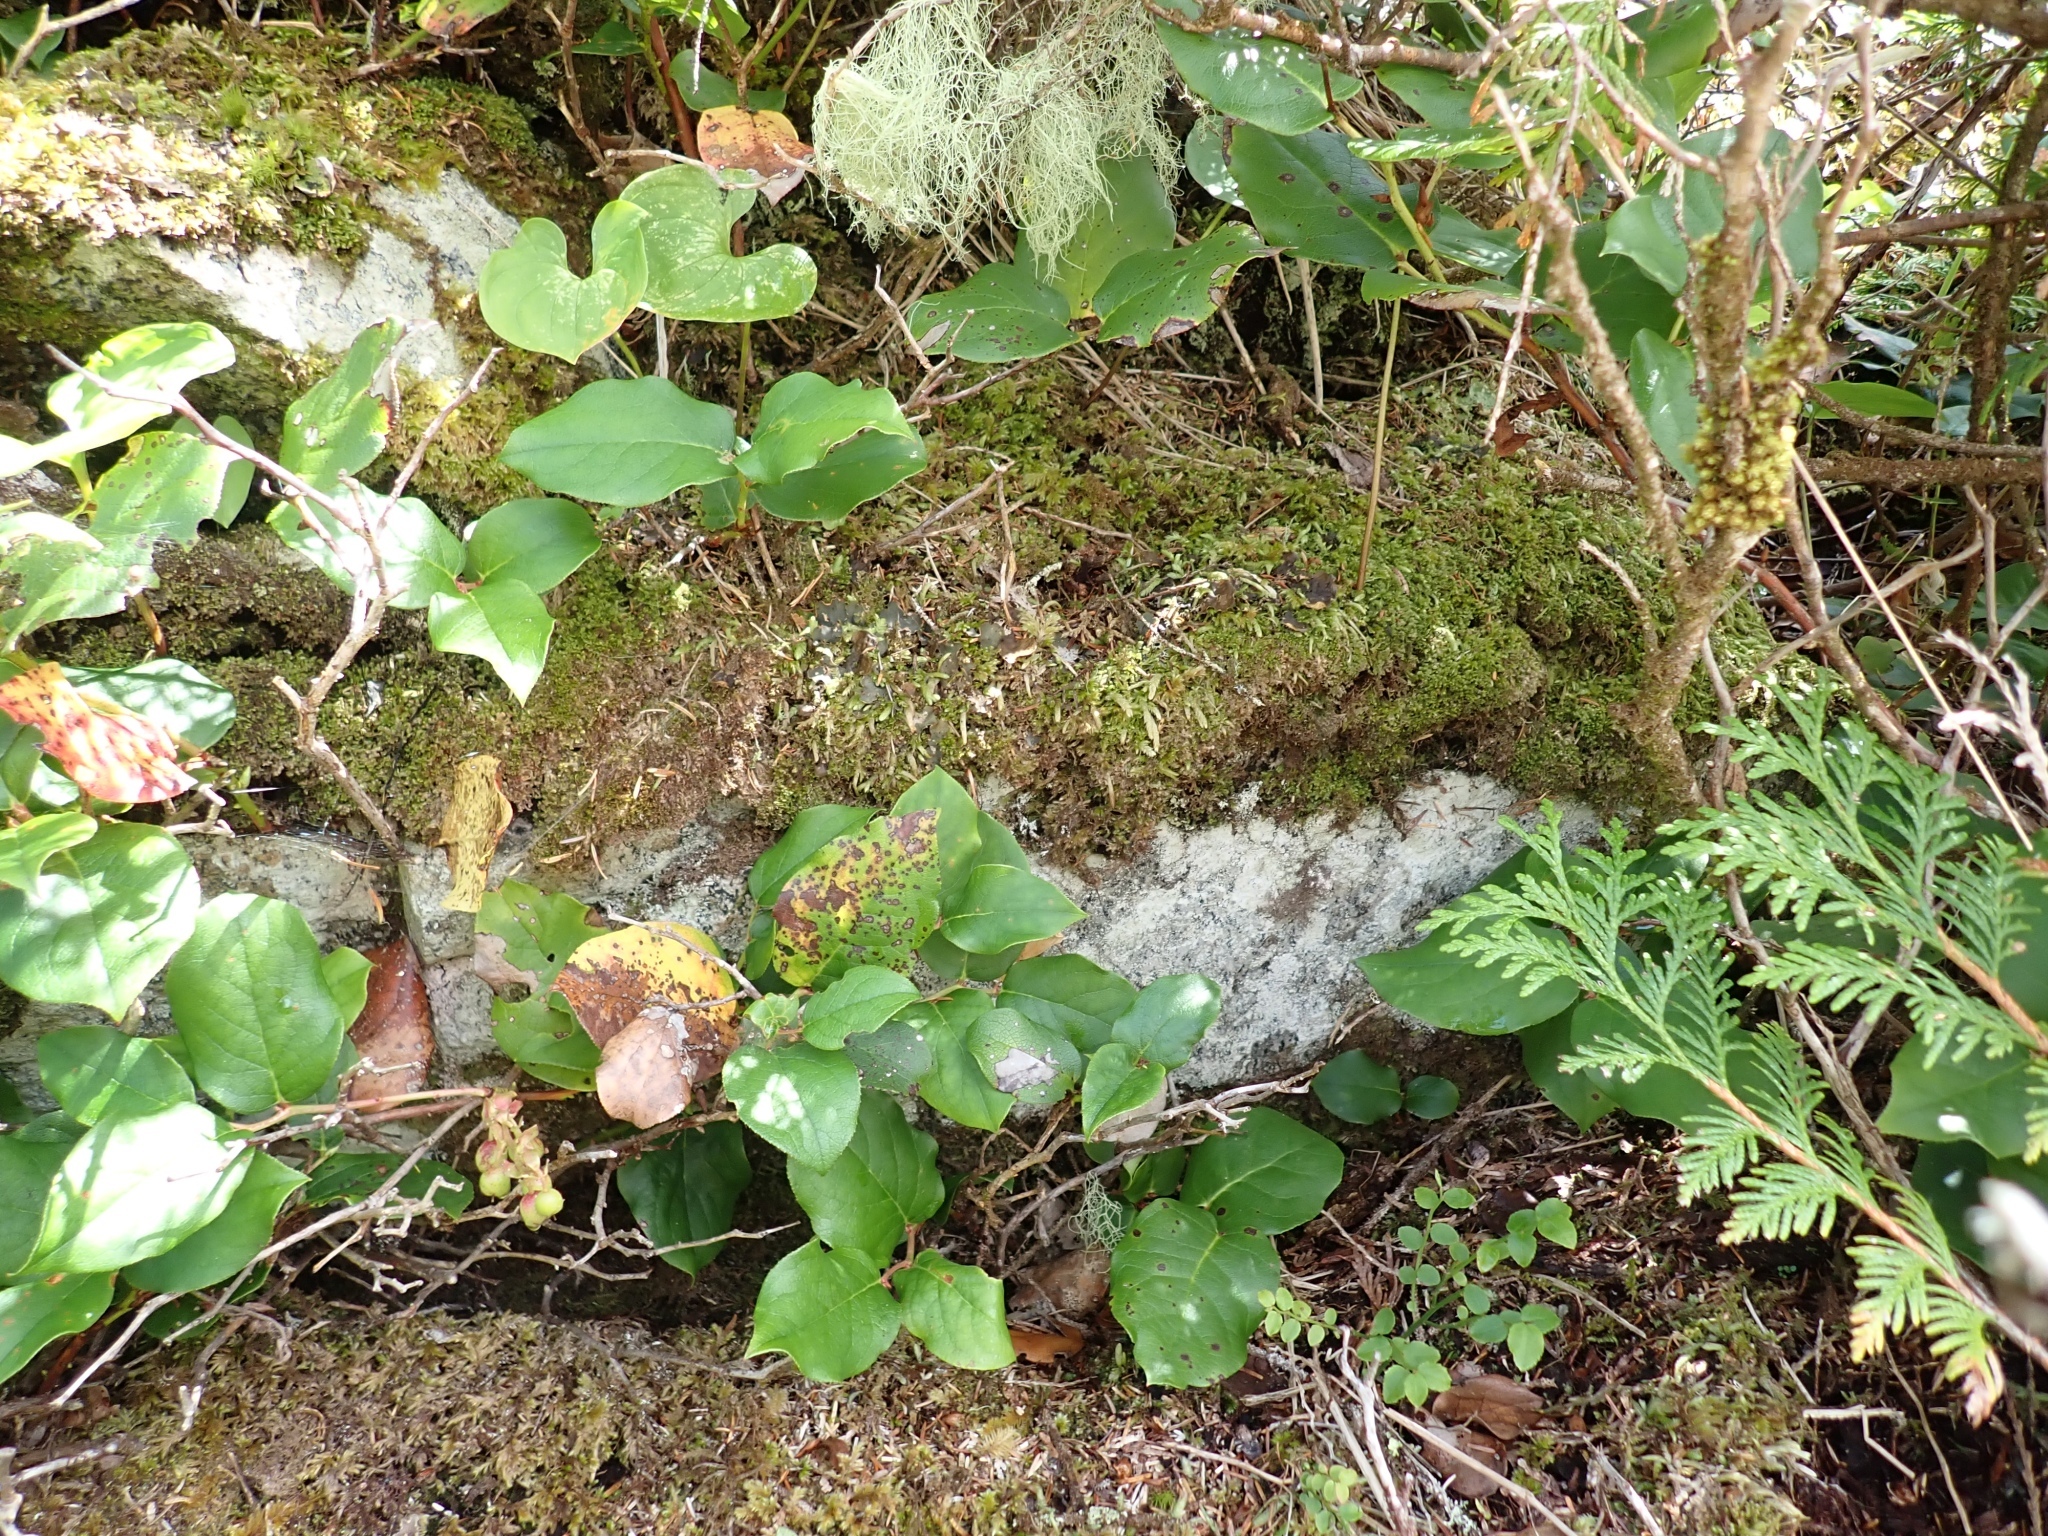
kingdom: Plantae
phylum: Bryophyta
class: Bryopsida
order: Hypnales
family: Plagiotheciaceae
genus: Plagiothecium
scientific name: Plagiothecium undulatum
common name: Waved silk-moss
